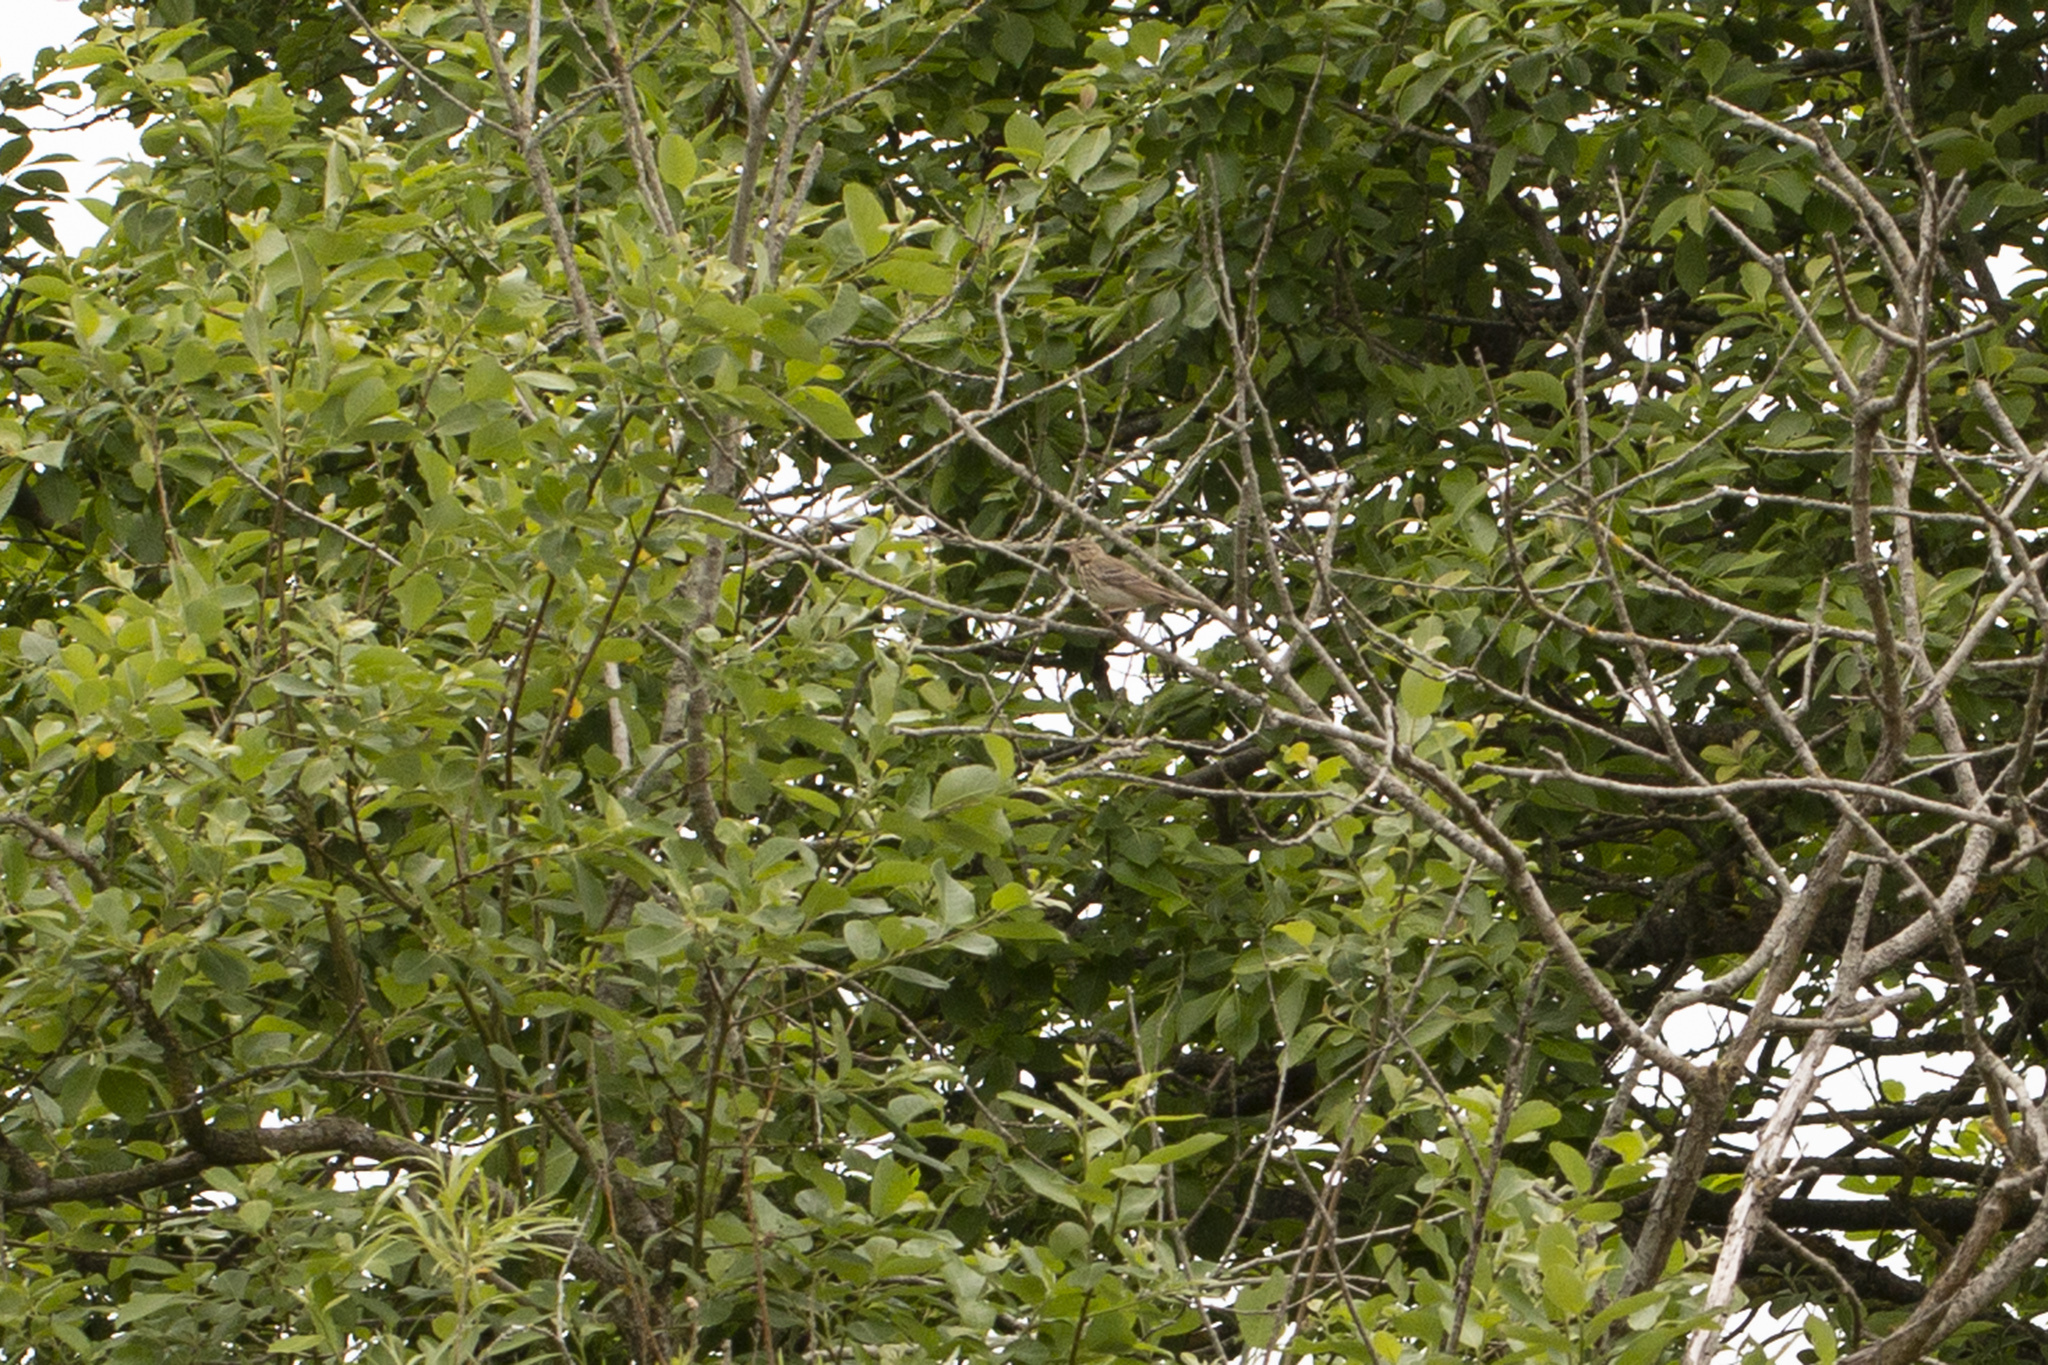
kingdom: Animalia
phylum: Chordata
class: Aves
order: Passeriformes
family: Motacillidae
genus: Anthus
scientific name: Anthus trivialis
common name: Tree pipit
